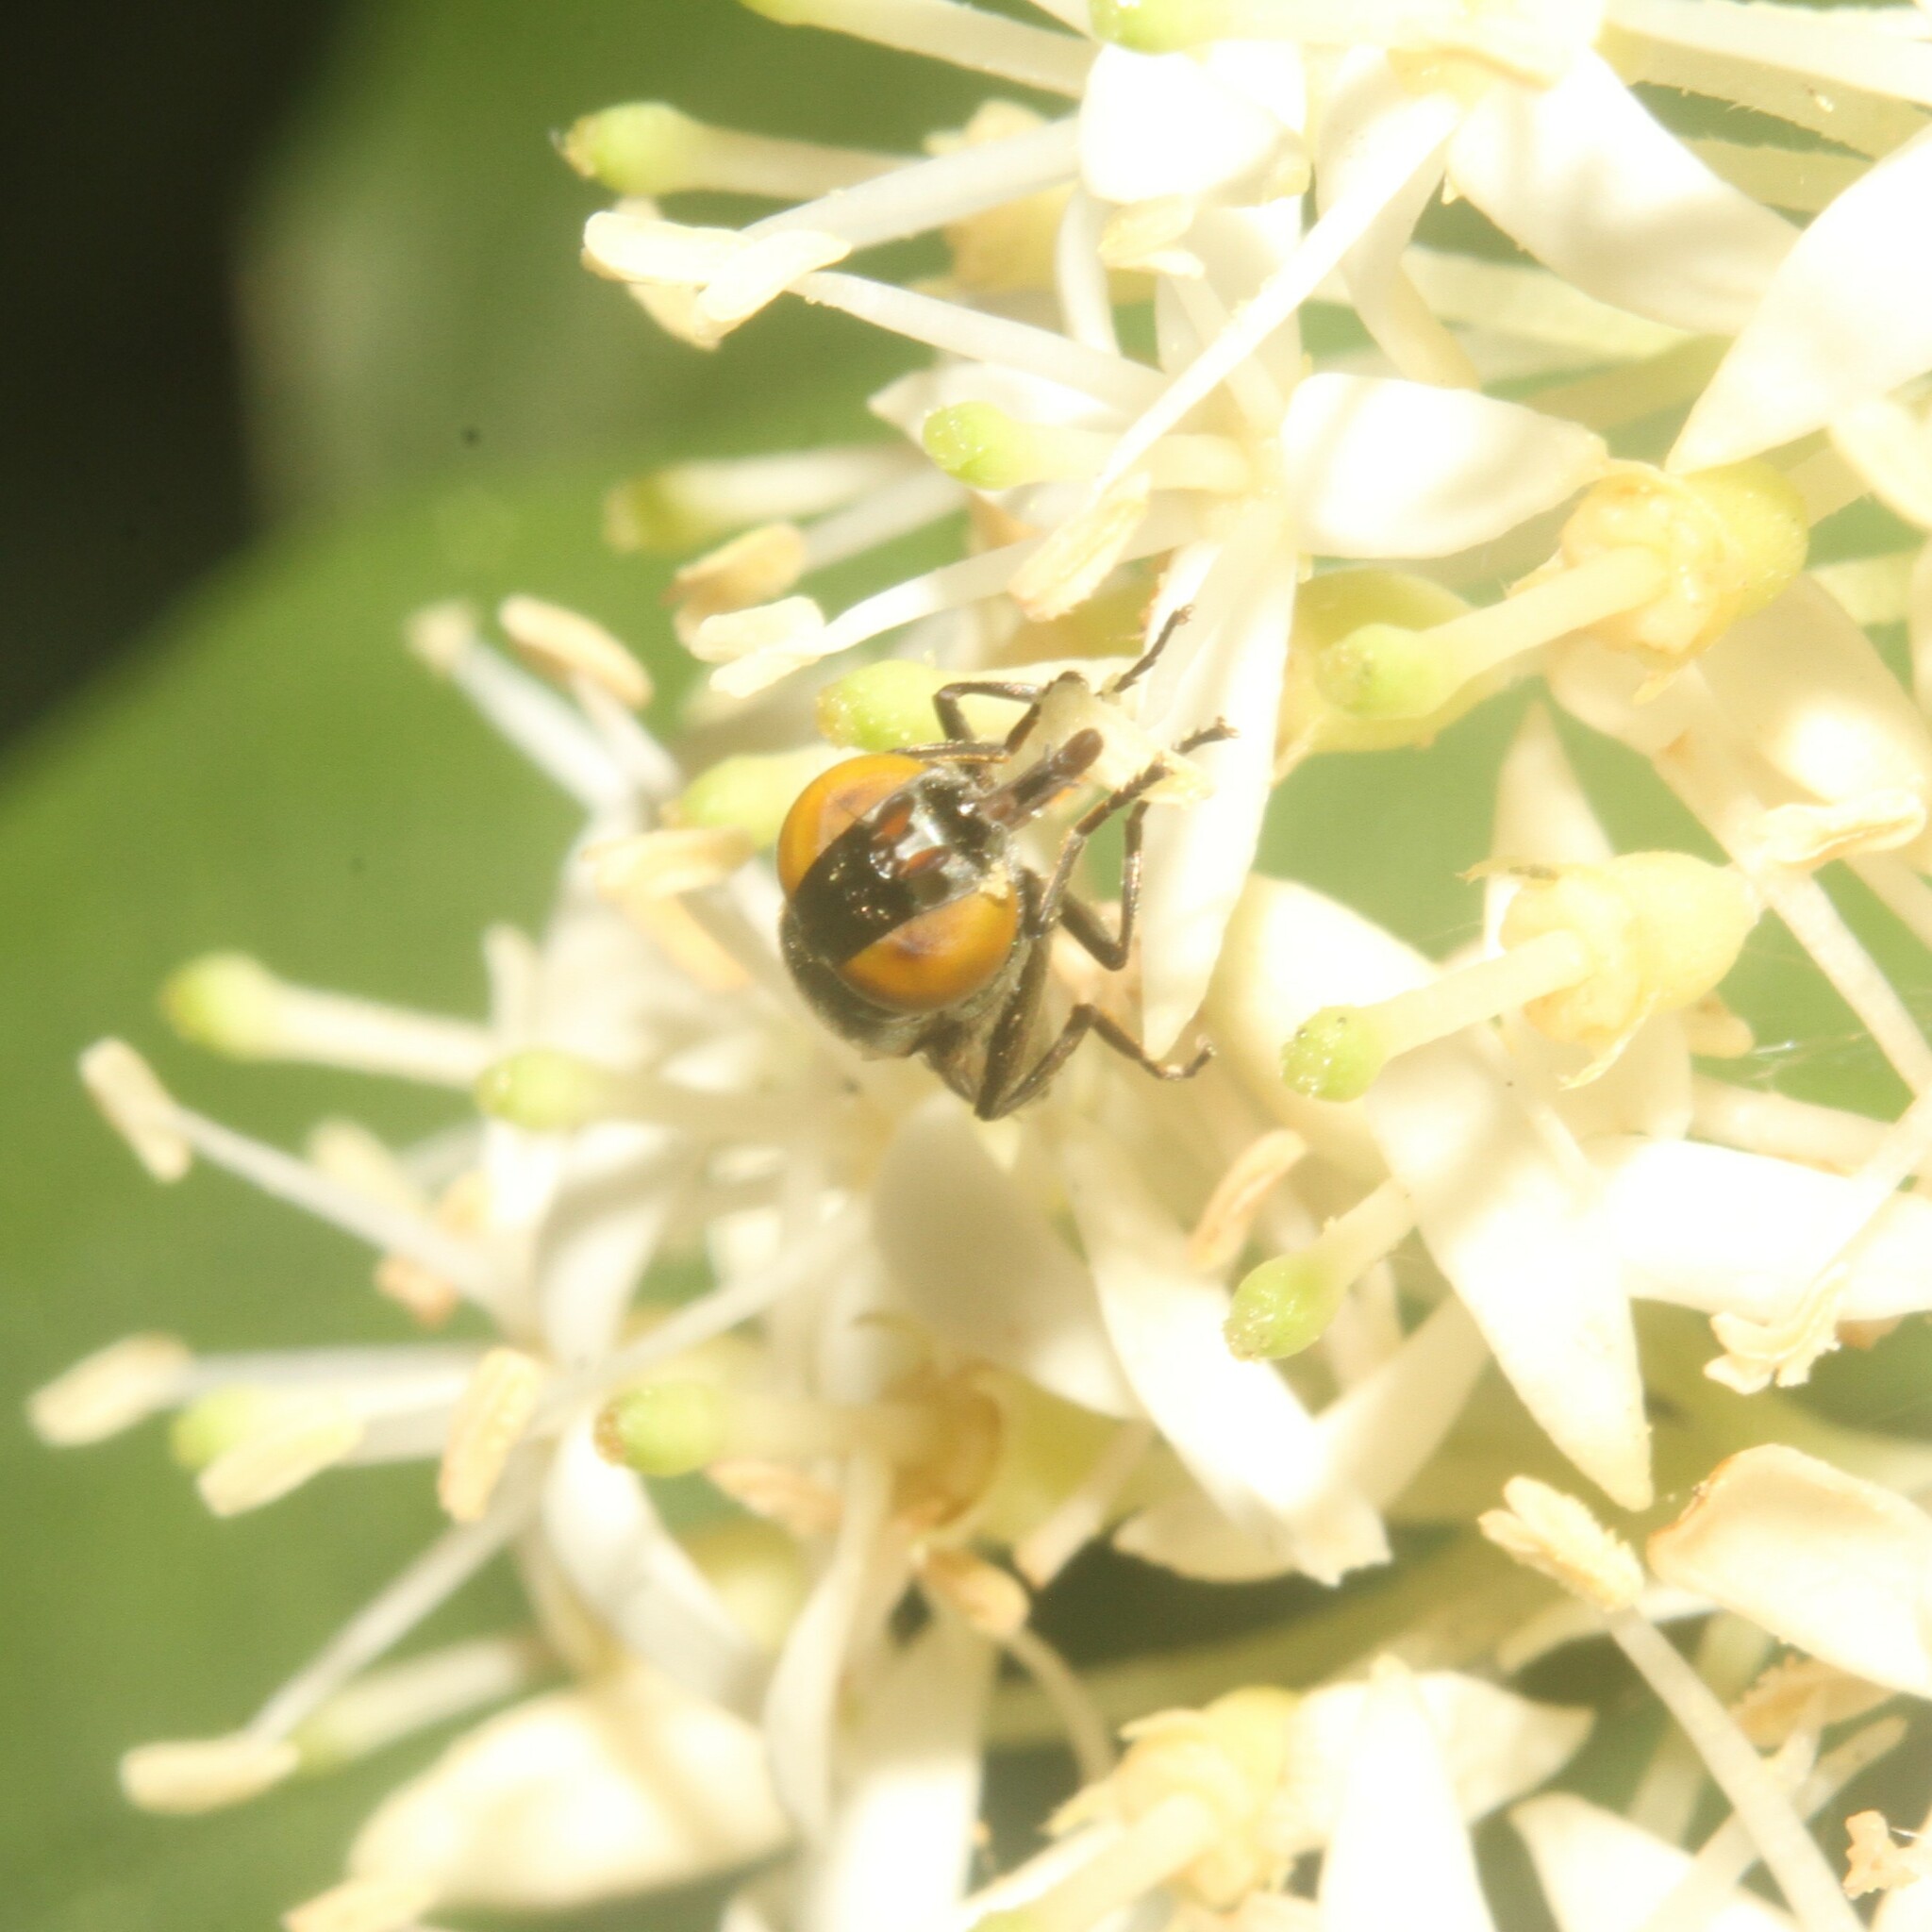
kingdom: Animalia
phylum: Arthropoda
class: Insecta
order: Diptera
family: Syrphidae
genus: Orthonevra
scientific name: Orthonevra splendens
